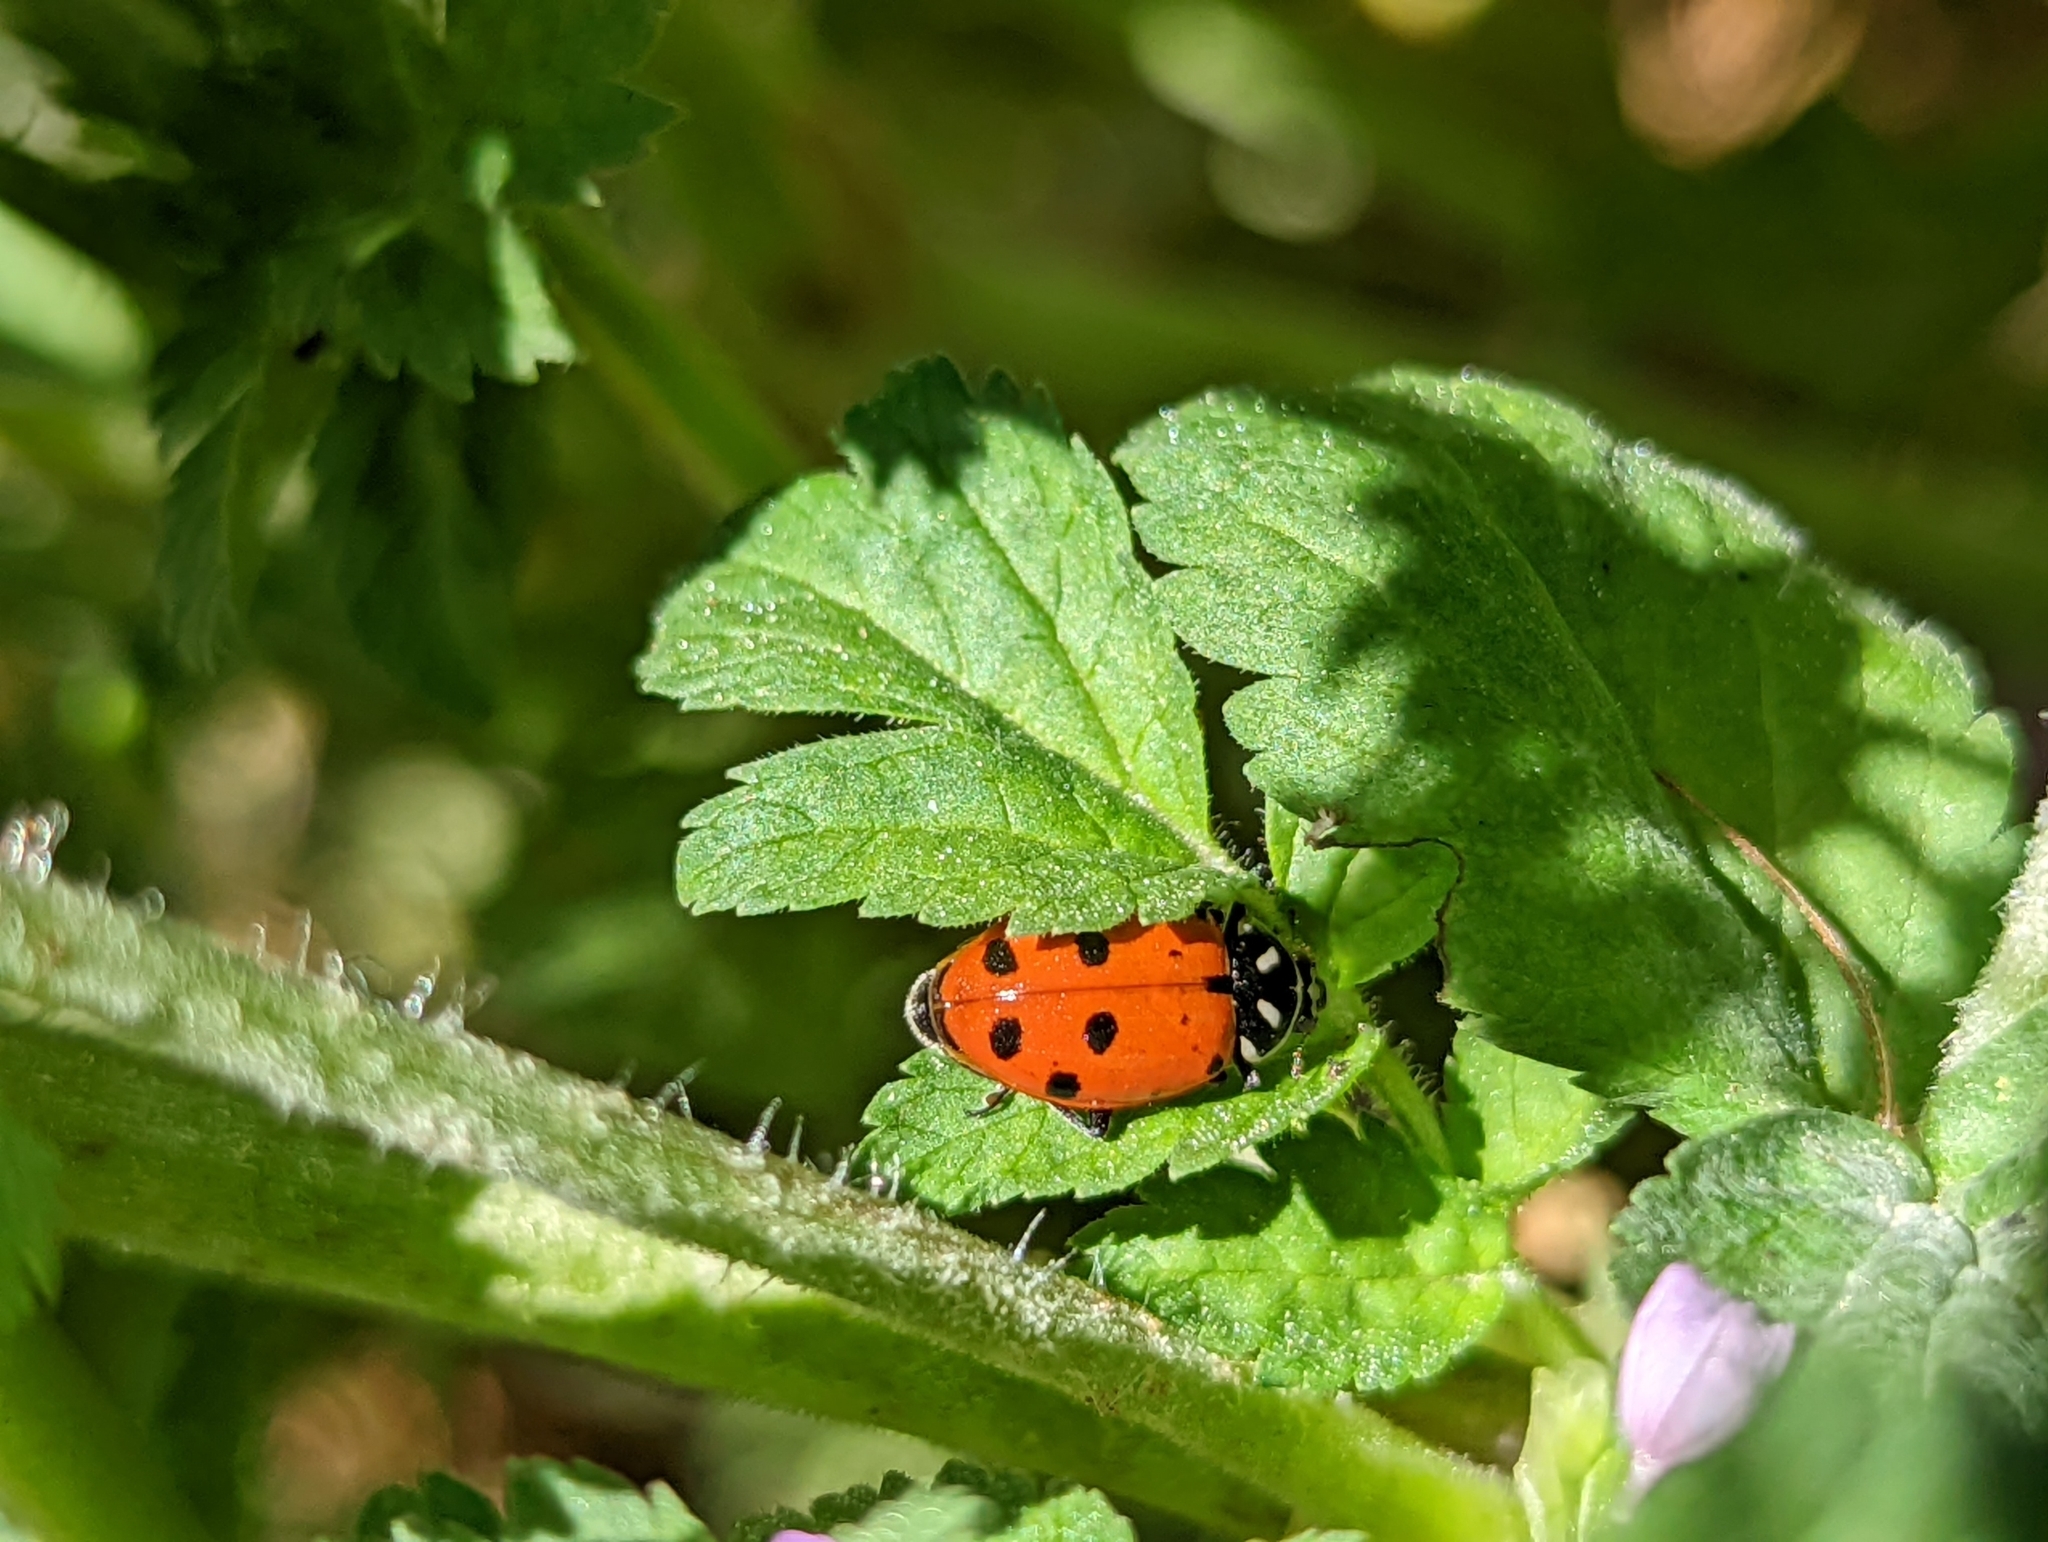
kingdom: Animalia
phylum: Arthropoda
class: Insecta
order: Coleoptera
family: Coccinellidae
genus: Hippodamia
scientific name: Hippodamia convergens
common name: Convergent lady beetle
